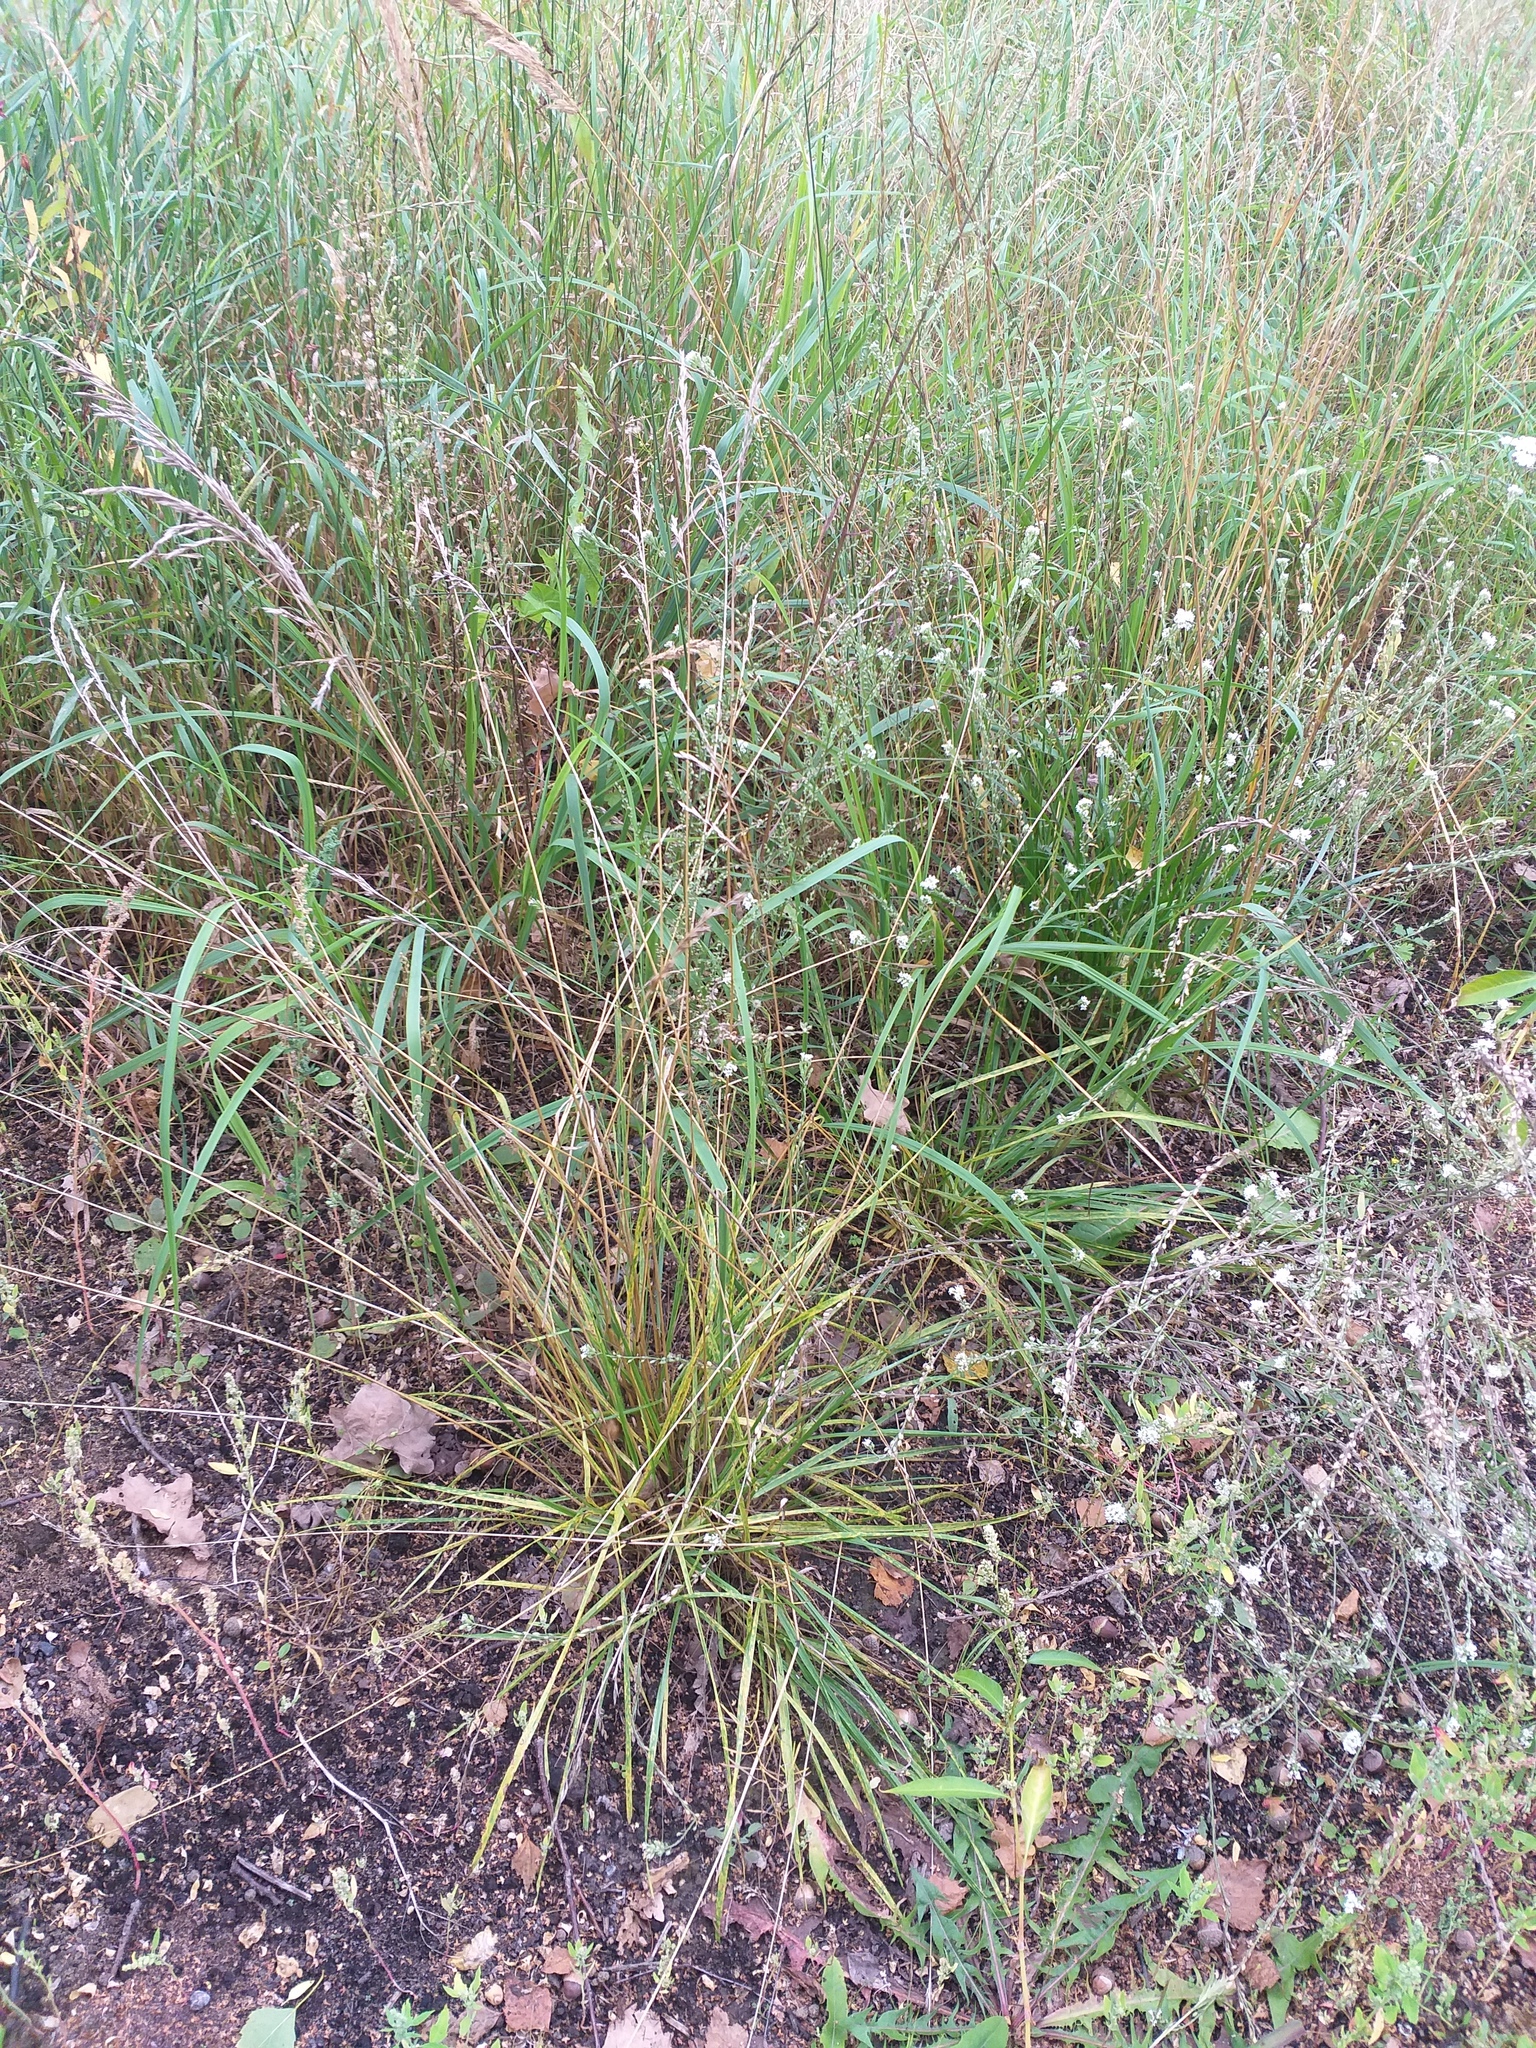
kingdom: Plantae
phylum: Tracheophyta
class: Liliopsida
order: Poales
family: Poaceae
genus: Lolium
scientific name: Lolium arundinaceum
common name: Reed fescue
